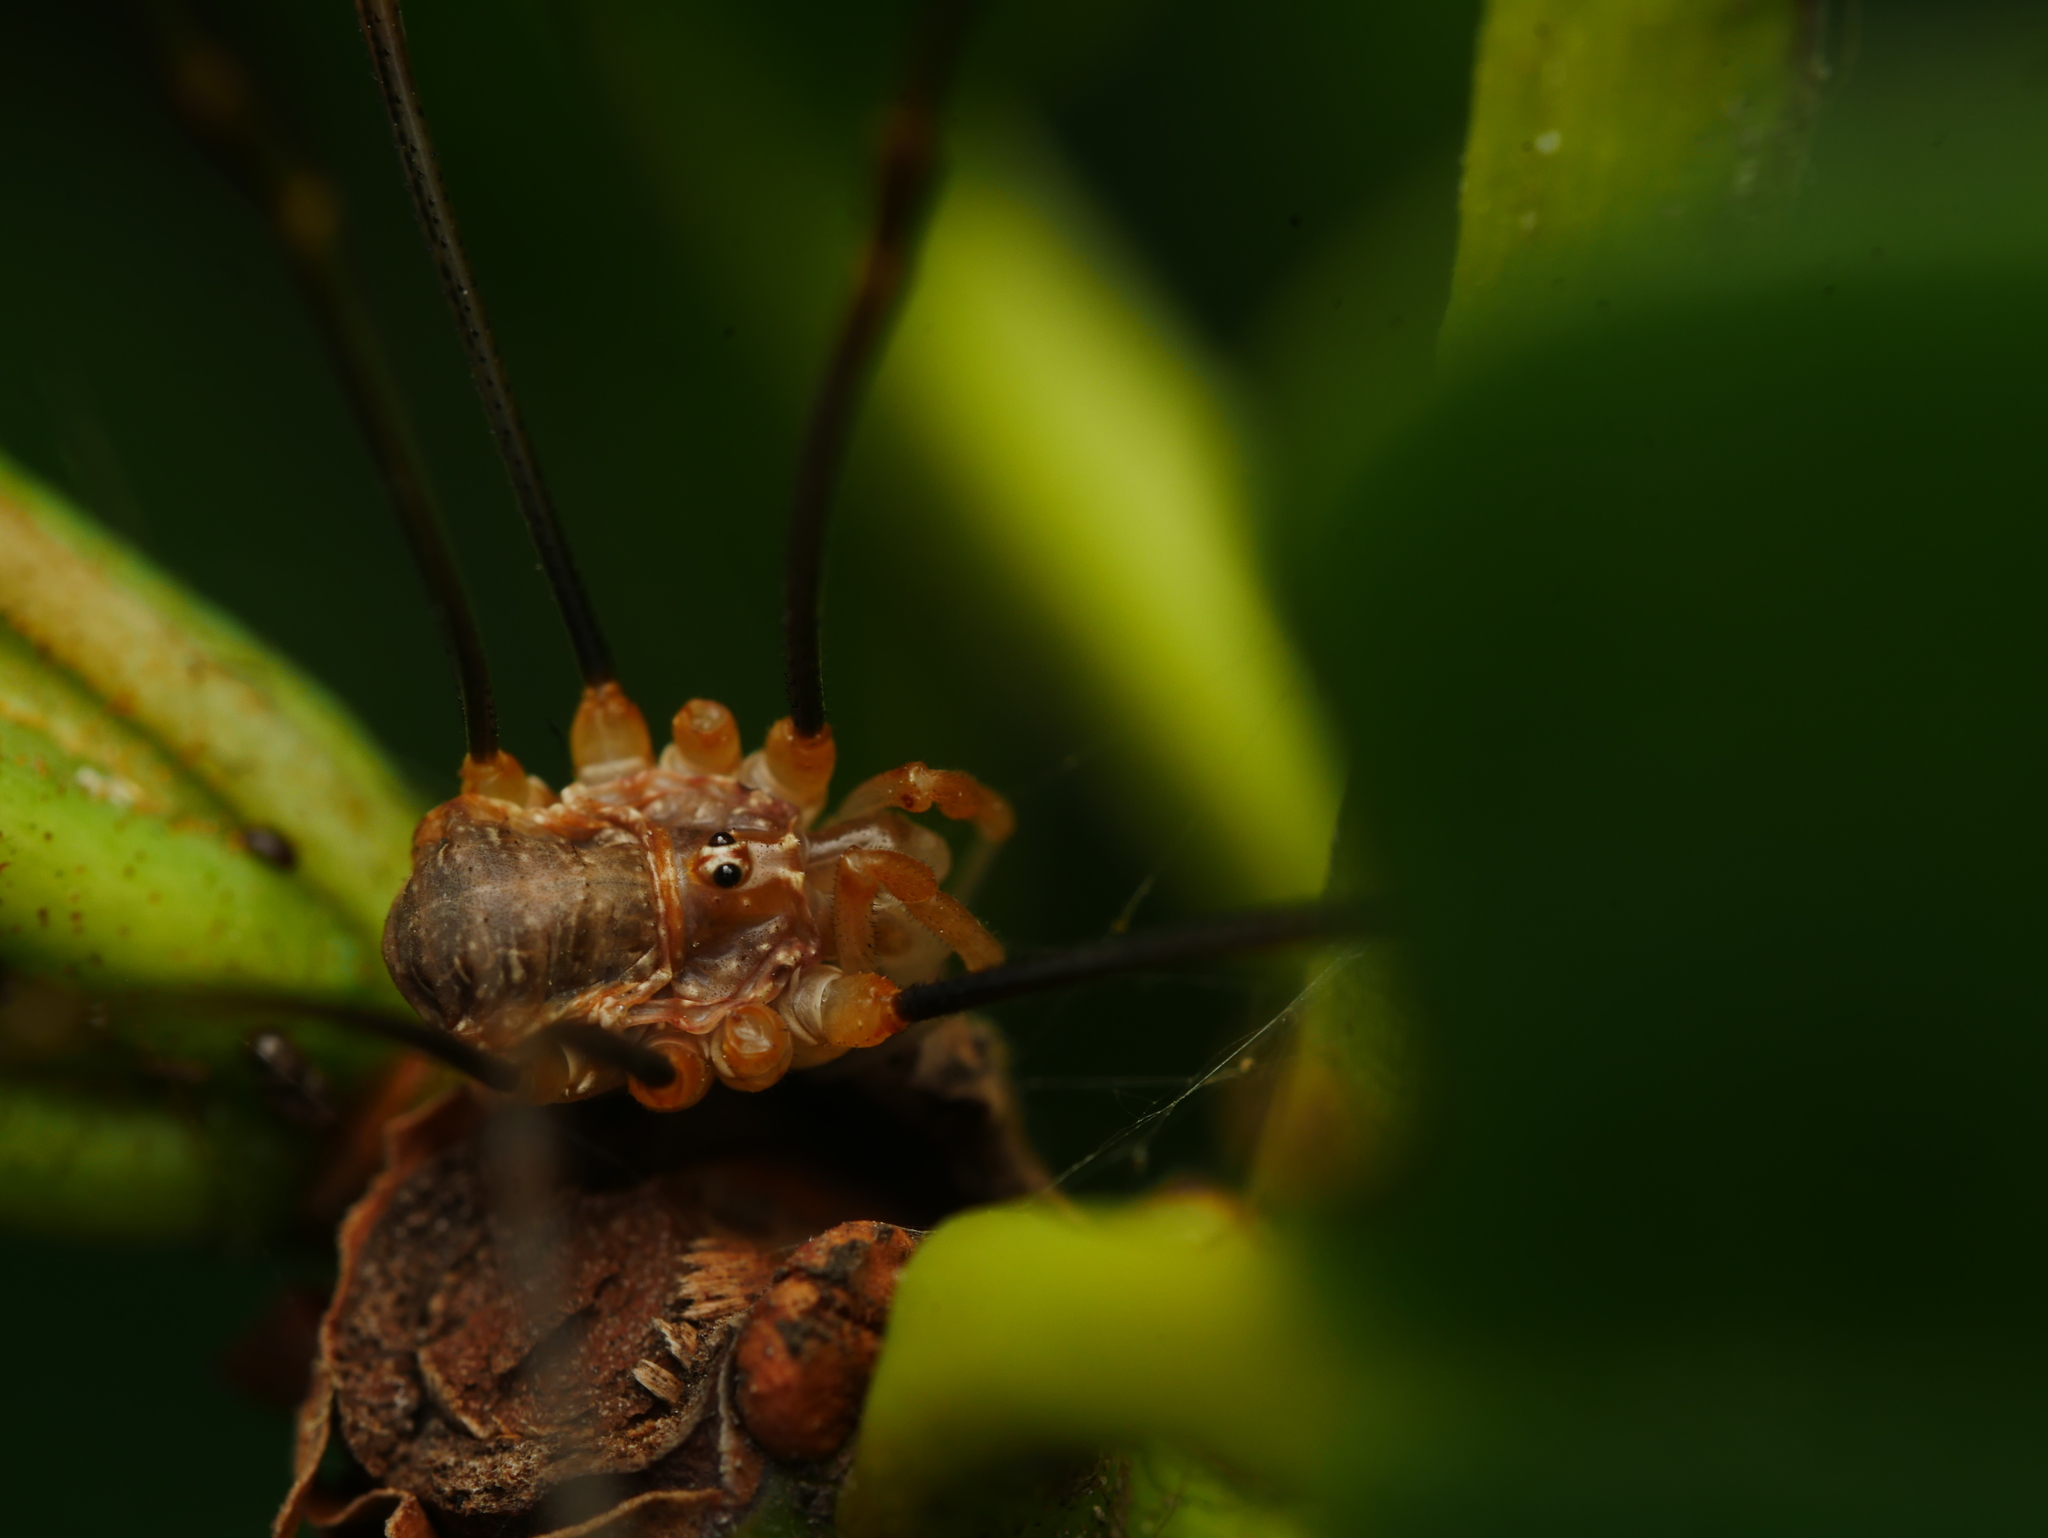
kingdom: Animalia
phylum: Arthropoda
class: Arachnida
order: Opiliones
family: Phalangiidae
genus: Opilio
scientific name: Opilio canestrinii
